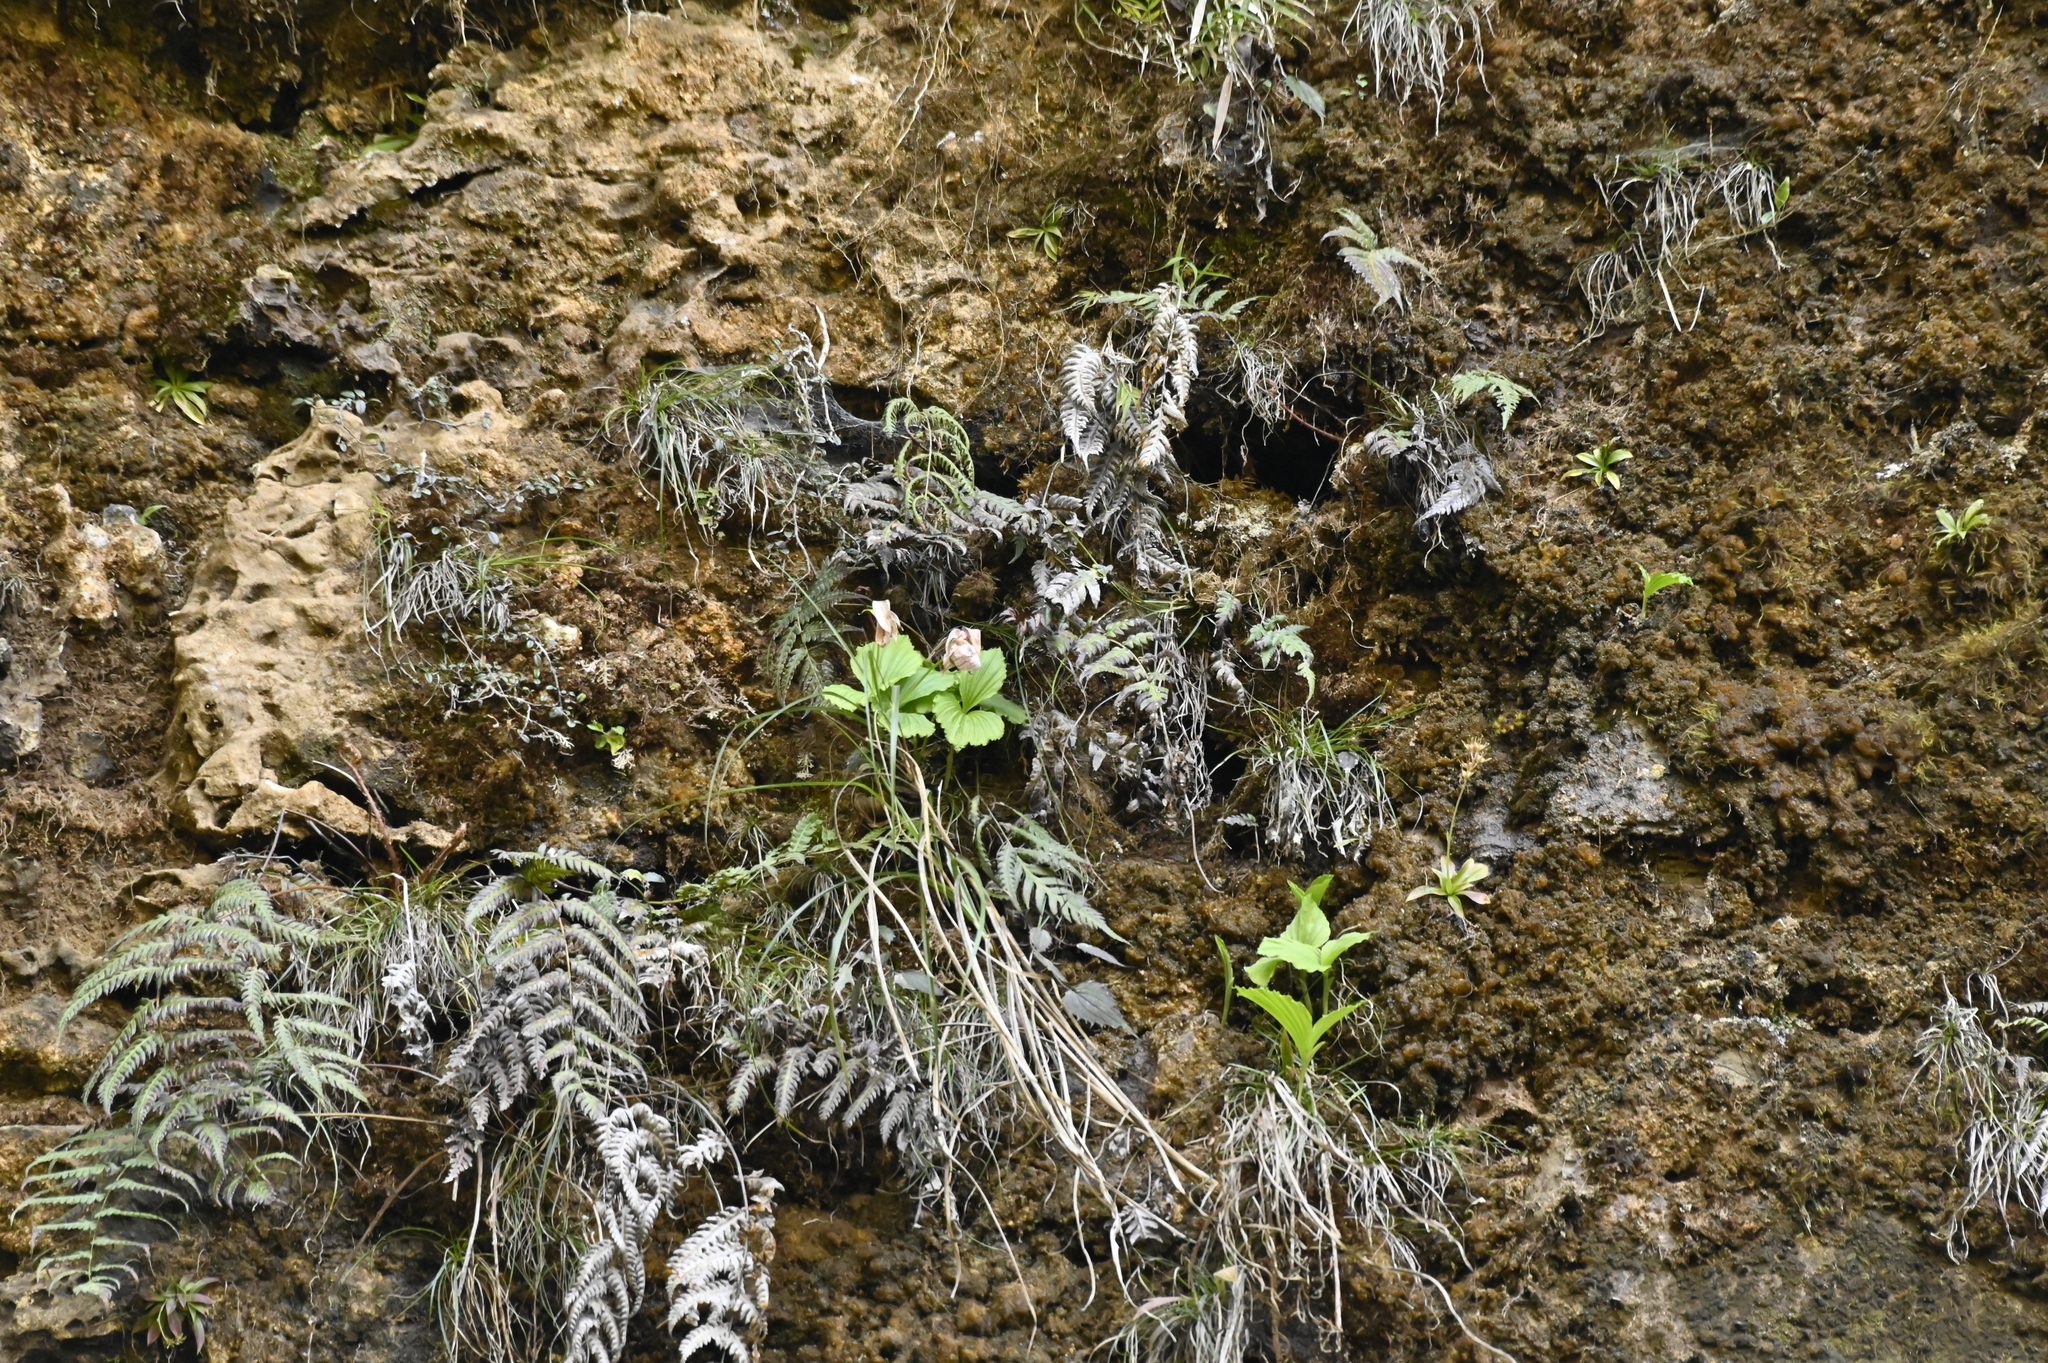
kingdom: Plantae
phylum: Tracheophyta
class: Liliopsida
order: Asparagales
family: Orchidaceae
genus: Cypripedium
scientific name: Cypripedium formosanum
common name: Formosa's lady's slipper
